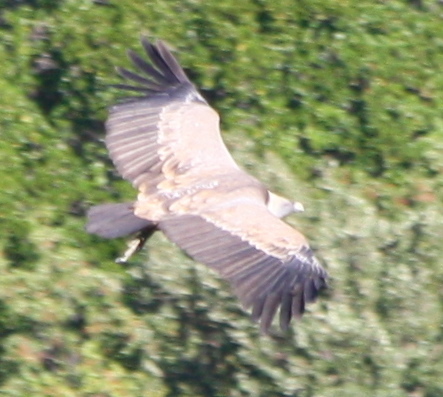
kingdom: Animalia
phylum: Chordata
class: Aves
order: Accipitriformes
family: Accipitridae
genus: Gyps
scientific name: Gyps fulvus
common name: Griffon vulture
